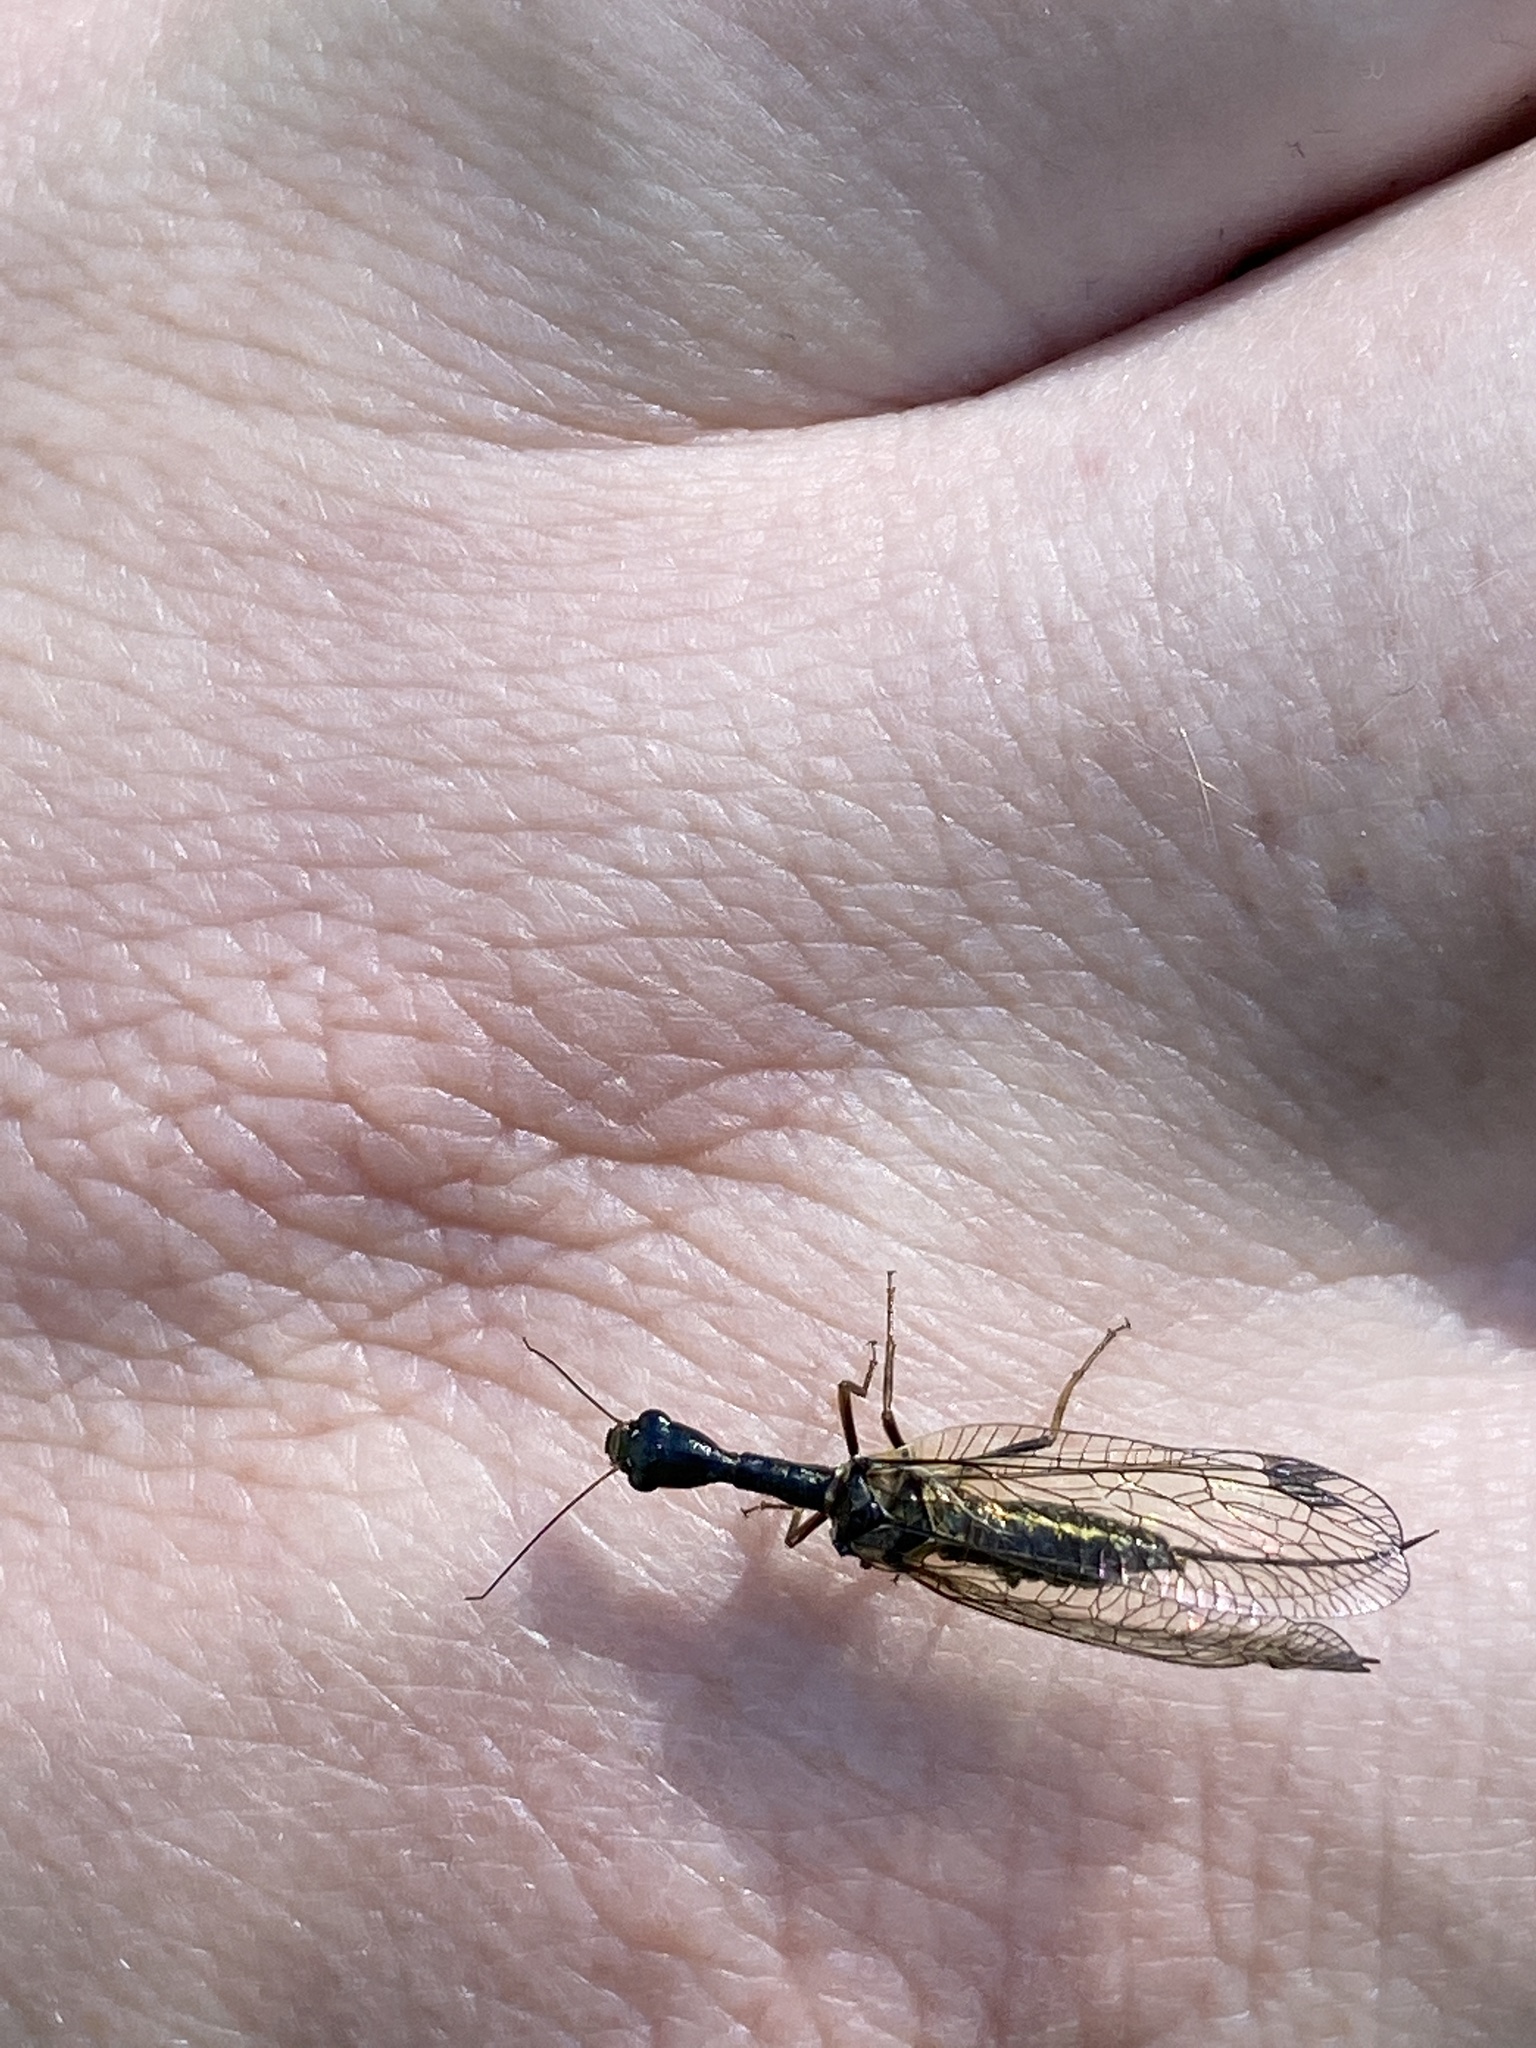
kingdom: Animalia
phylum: Arthropoda
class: Insecta
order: Raphidioptera
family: Raphidiidae
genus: Phaeostigma
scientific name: Phaeostigma notatum
